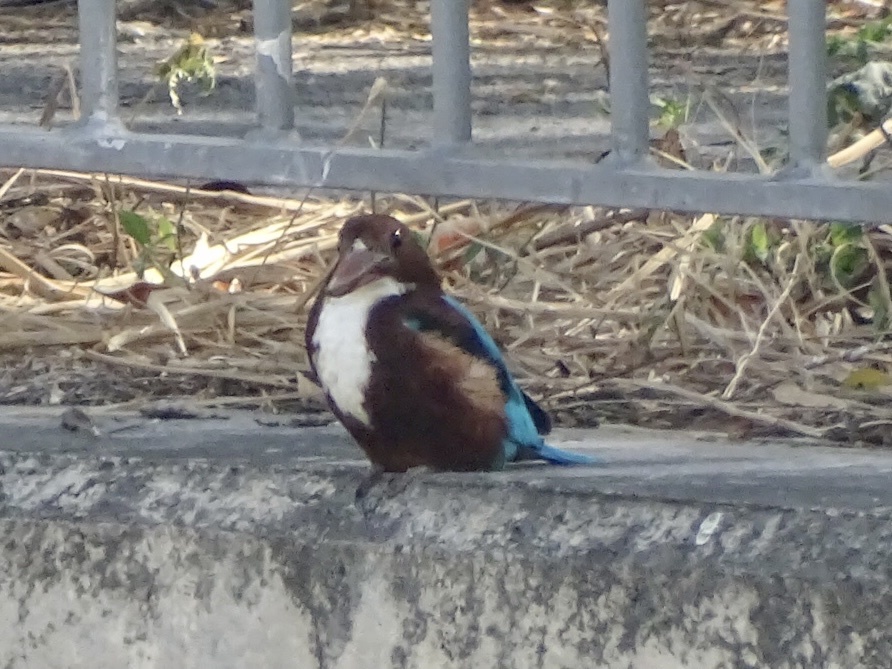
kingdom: Animalia
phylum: Chordata
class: Aves
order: Coraciiformes
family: Alcedinidae
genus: Halcyon
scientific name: Halcyon smyrnensis
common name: White-throated kingfisher
